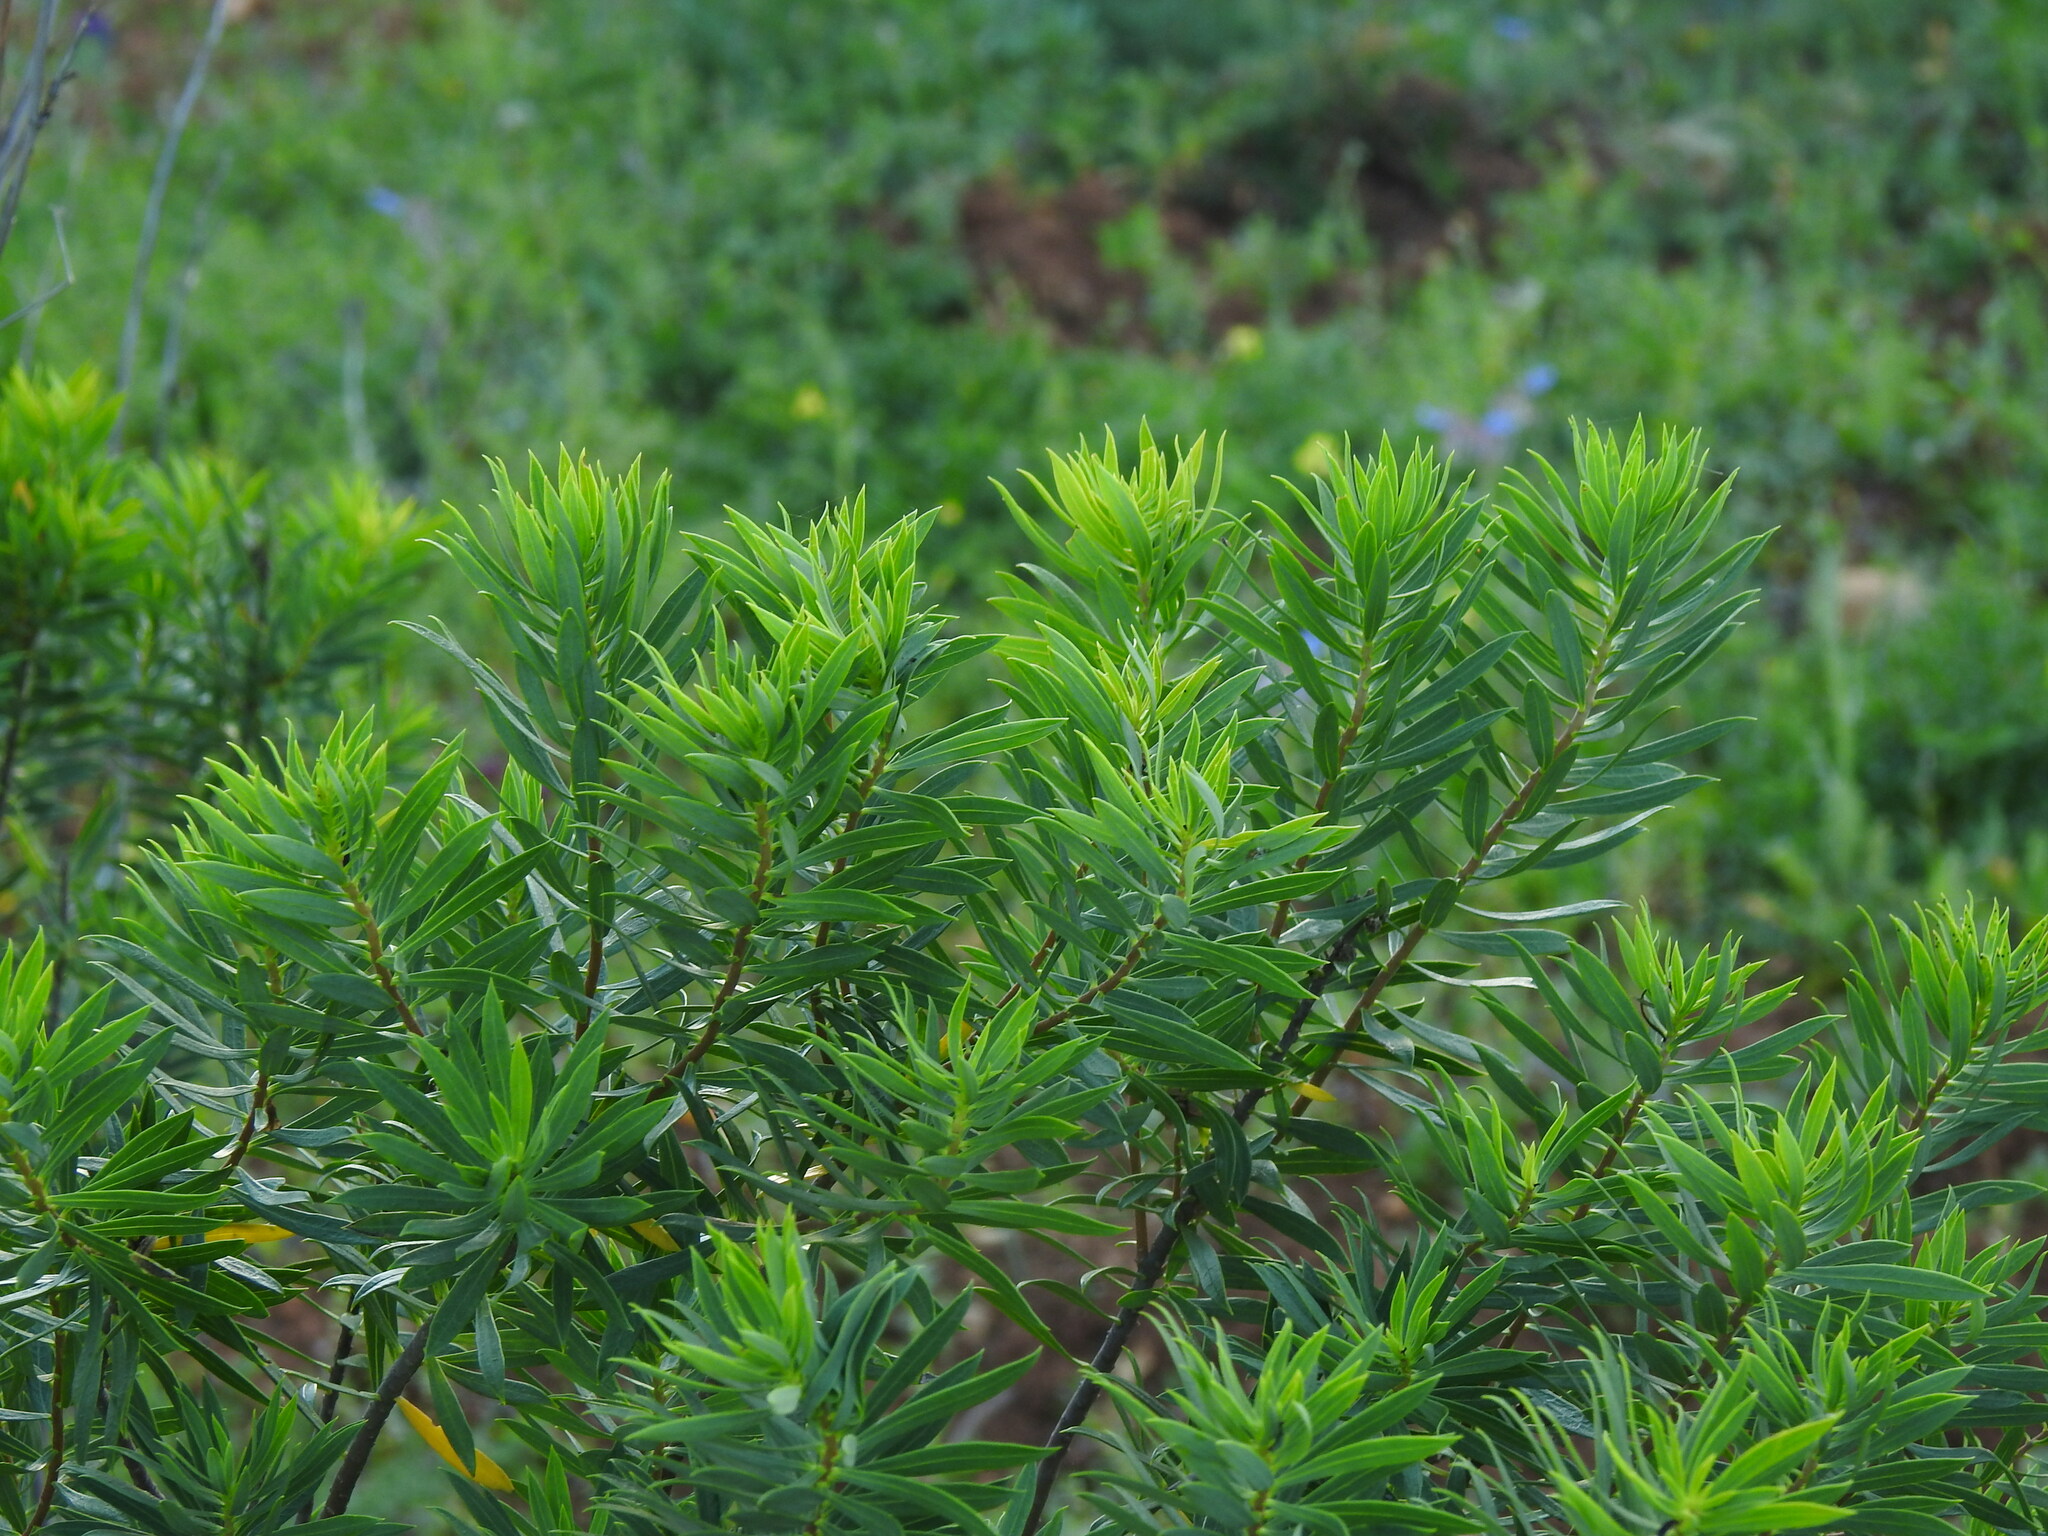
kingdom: Plantae
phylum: Tracheophyta
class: Magnoliopsida
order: Malvales
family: Thymelaeaceae
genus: Daphne
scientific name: Daphne gnidium
